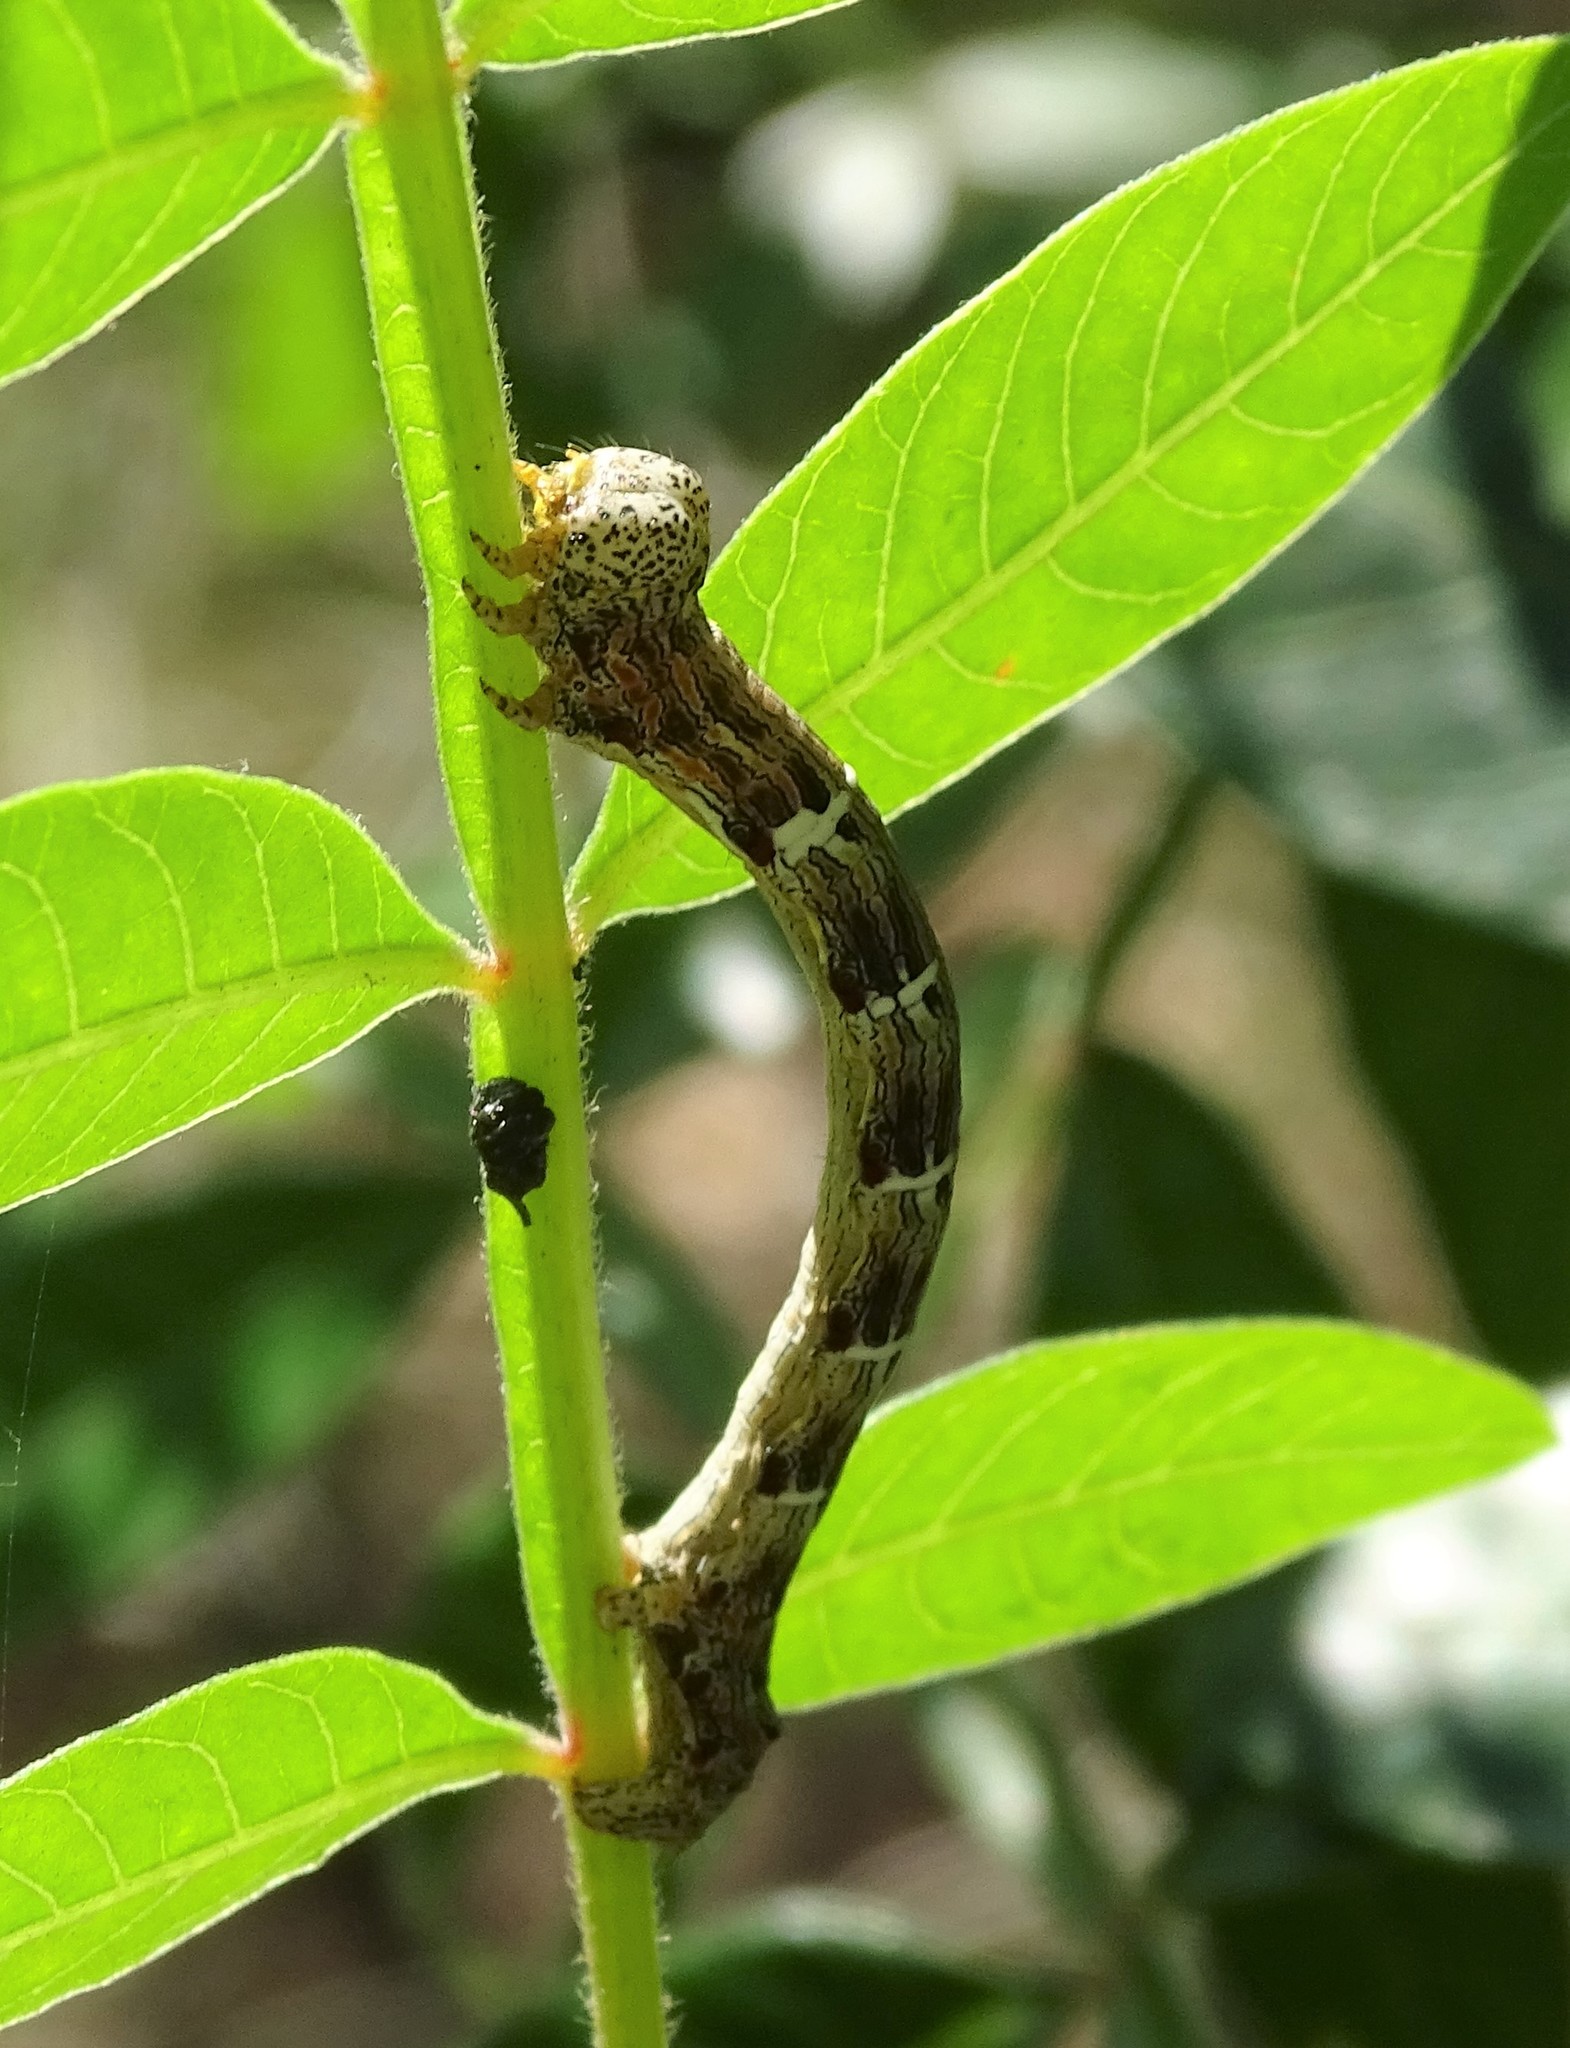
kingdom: Animalia
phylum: Arthropoda
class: Insecta
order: Lepidoptera
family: Geometridae
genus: Lycia
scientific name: Lycia ypsilon
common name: Wooly gray
